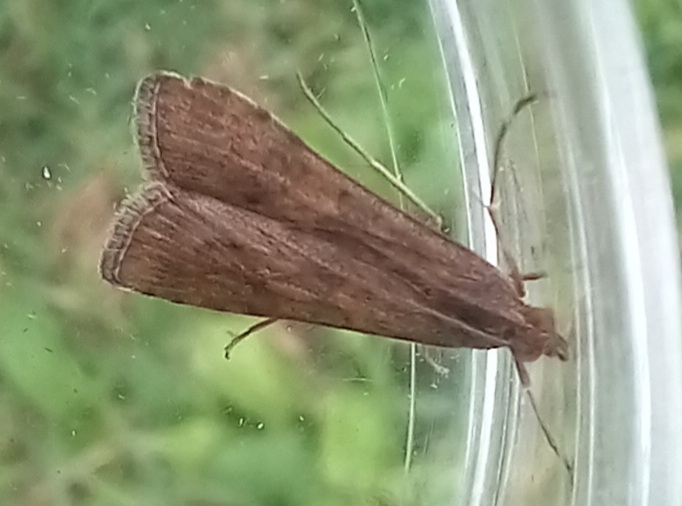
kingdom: Animalia
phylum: Arthropoda
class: Insecta
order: Lepidoptera
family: Crambidae
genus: Nomophila
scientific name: Nomophila noctuella
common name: Rush veneer
